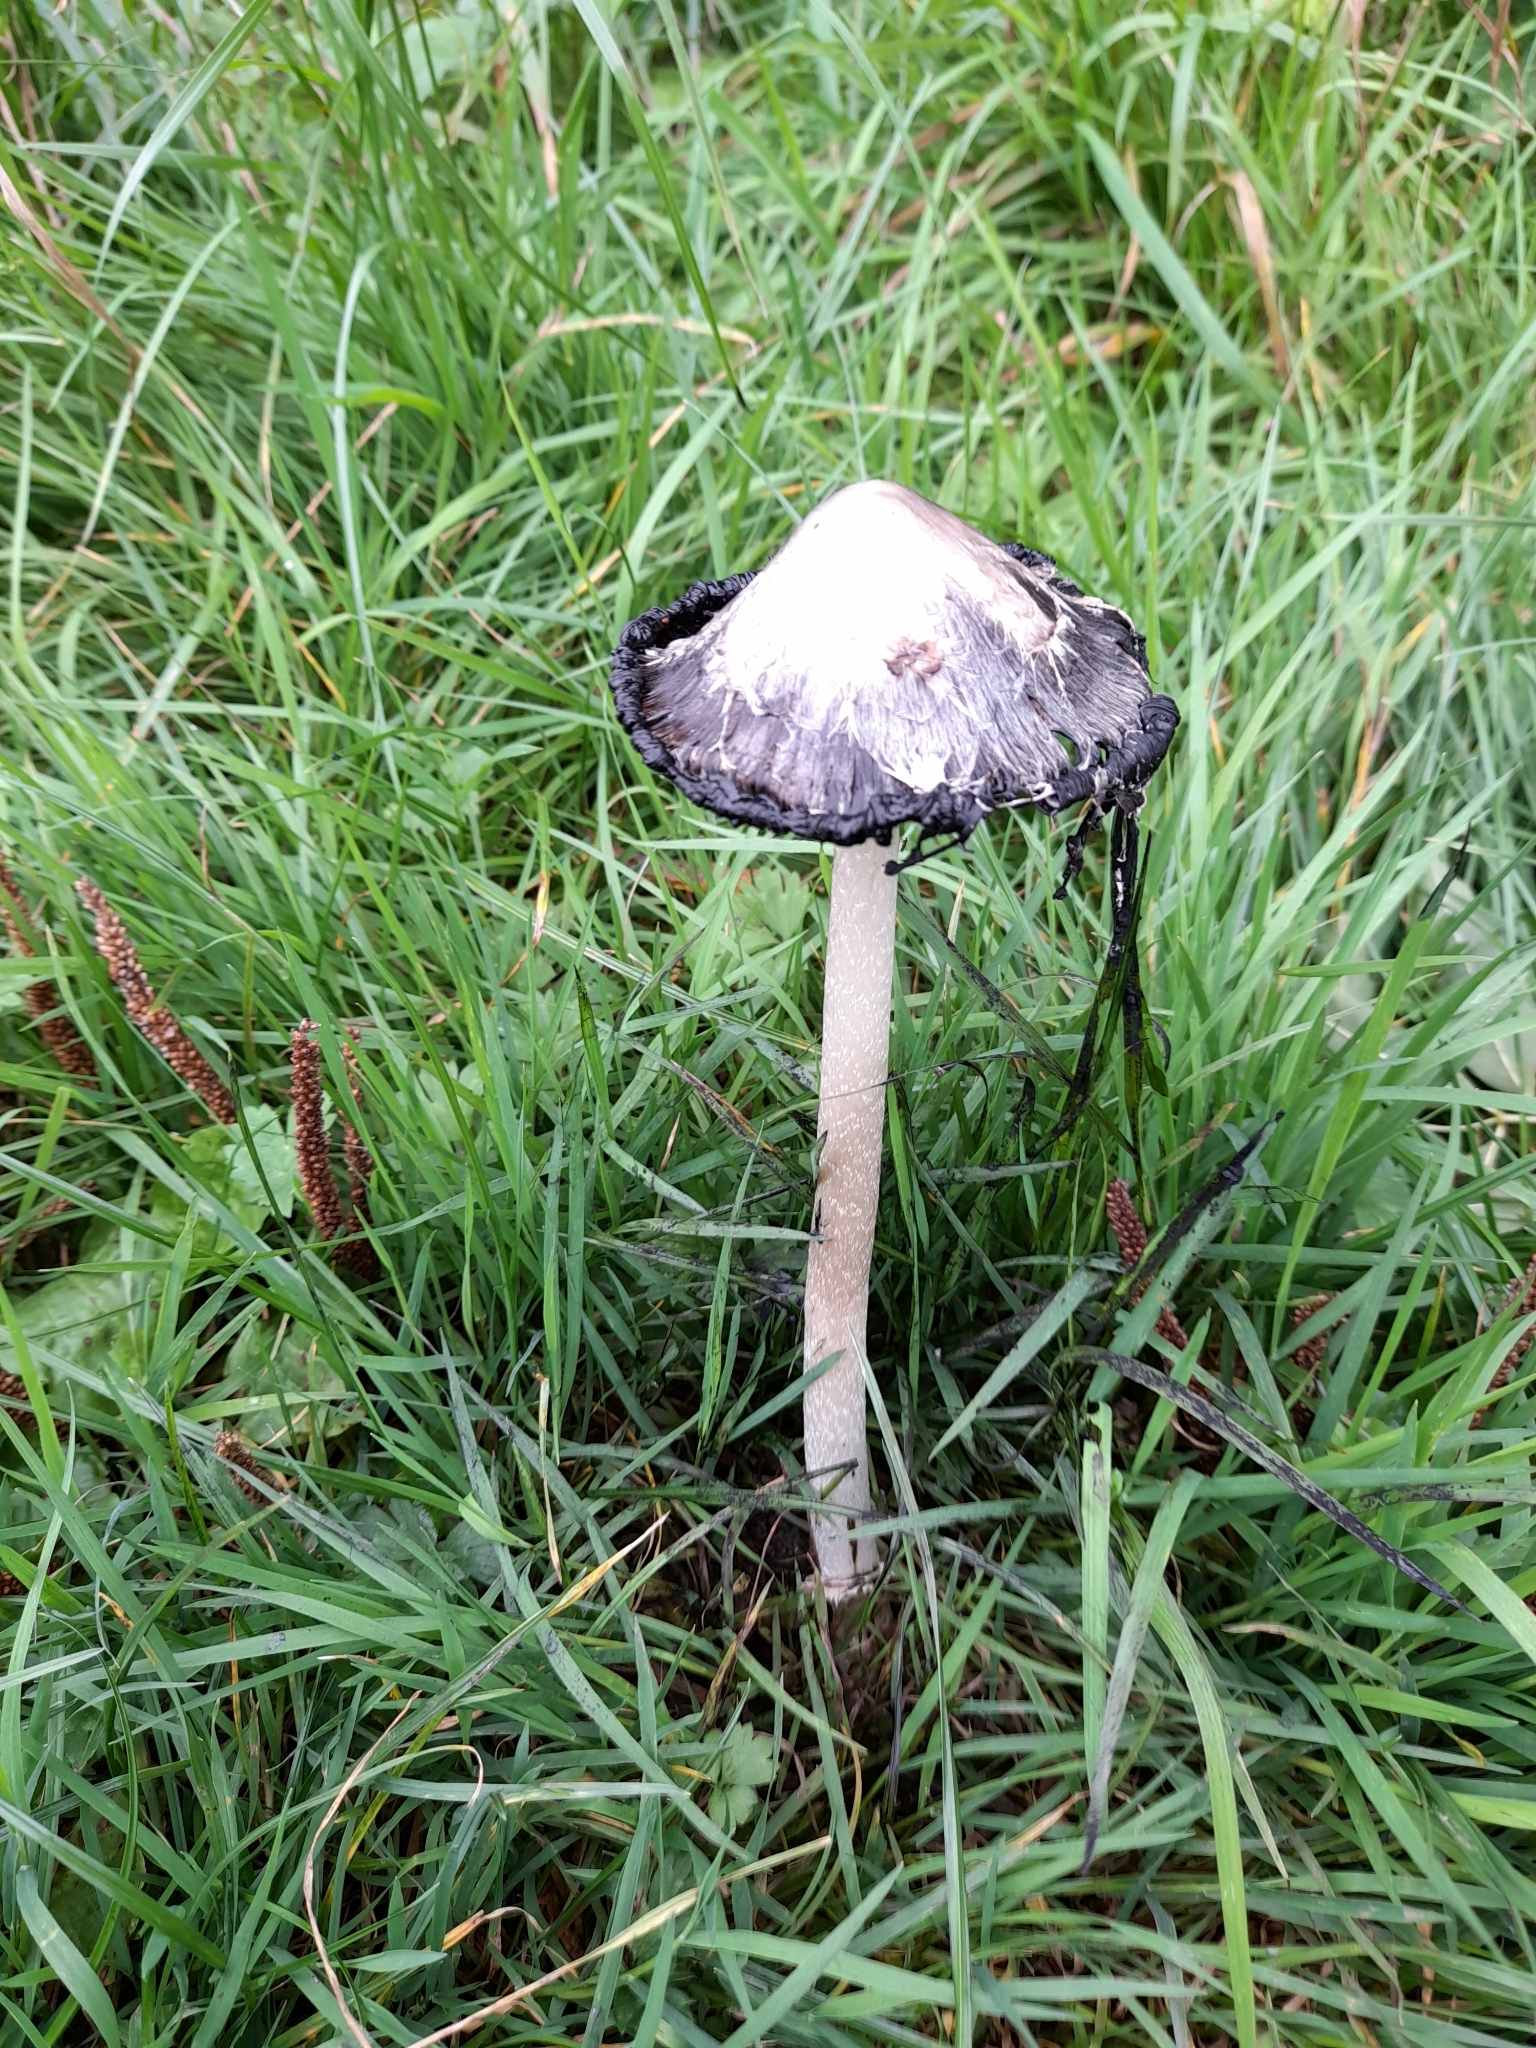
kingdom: Fungi
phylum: Basidiomycota
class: Agaricomycetes
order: Agaricales
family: Agaricaceae
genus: Coprinus
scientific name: Coprinus comatus
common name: Lawyer's wig
